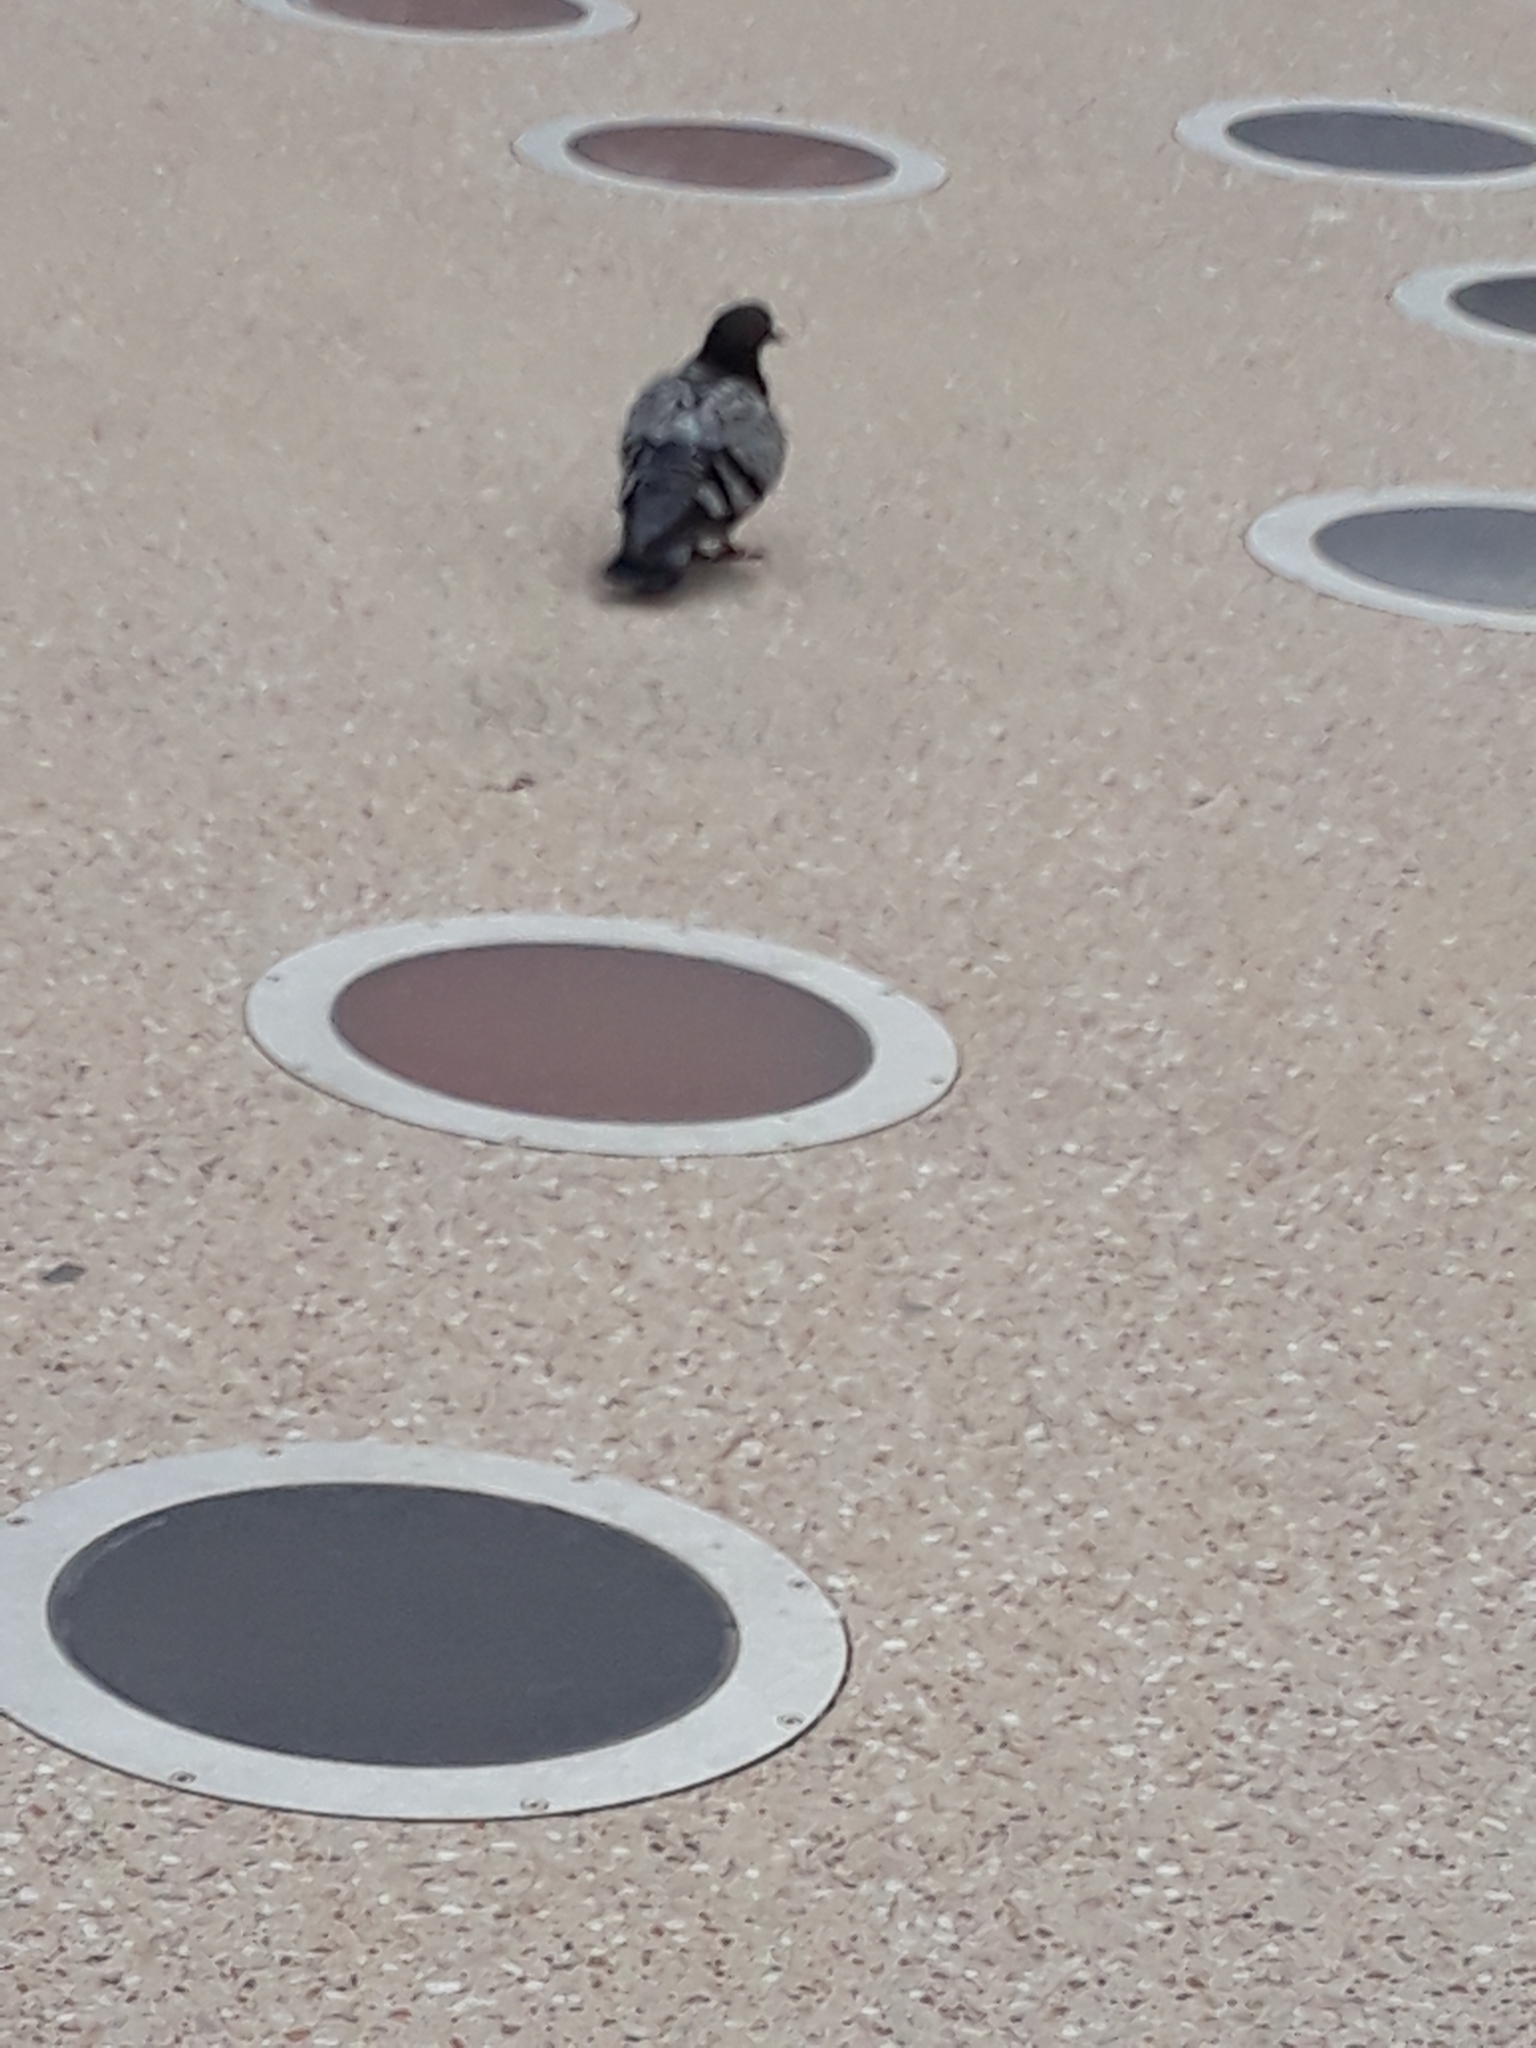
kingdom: Animalia
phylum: Chordata
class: Aves
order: Columbiformes
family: Columbidae
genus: Columba
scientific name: Columba livia
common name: Rock pigeon
